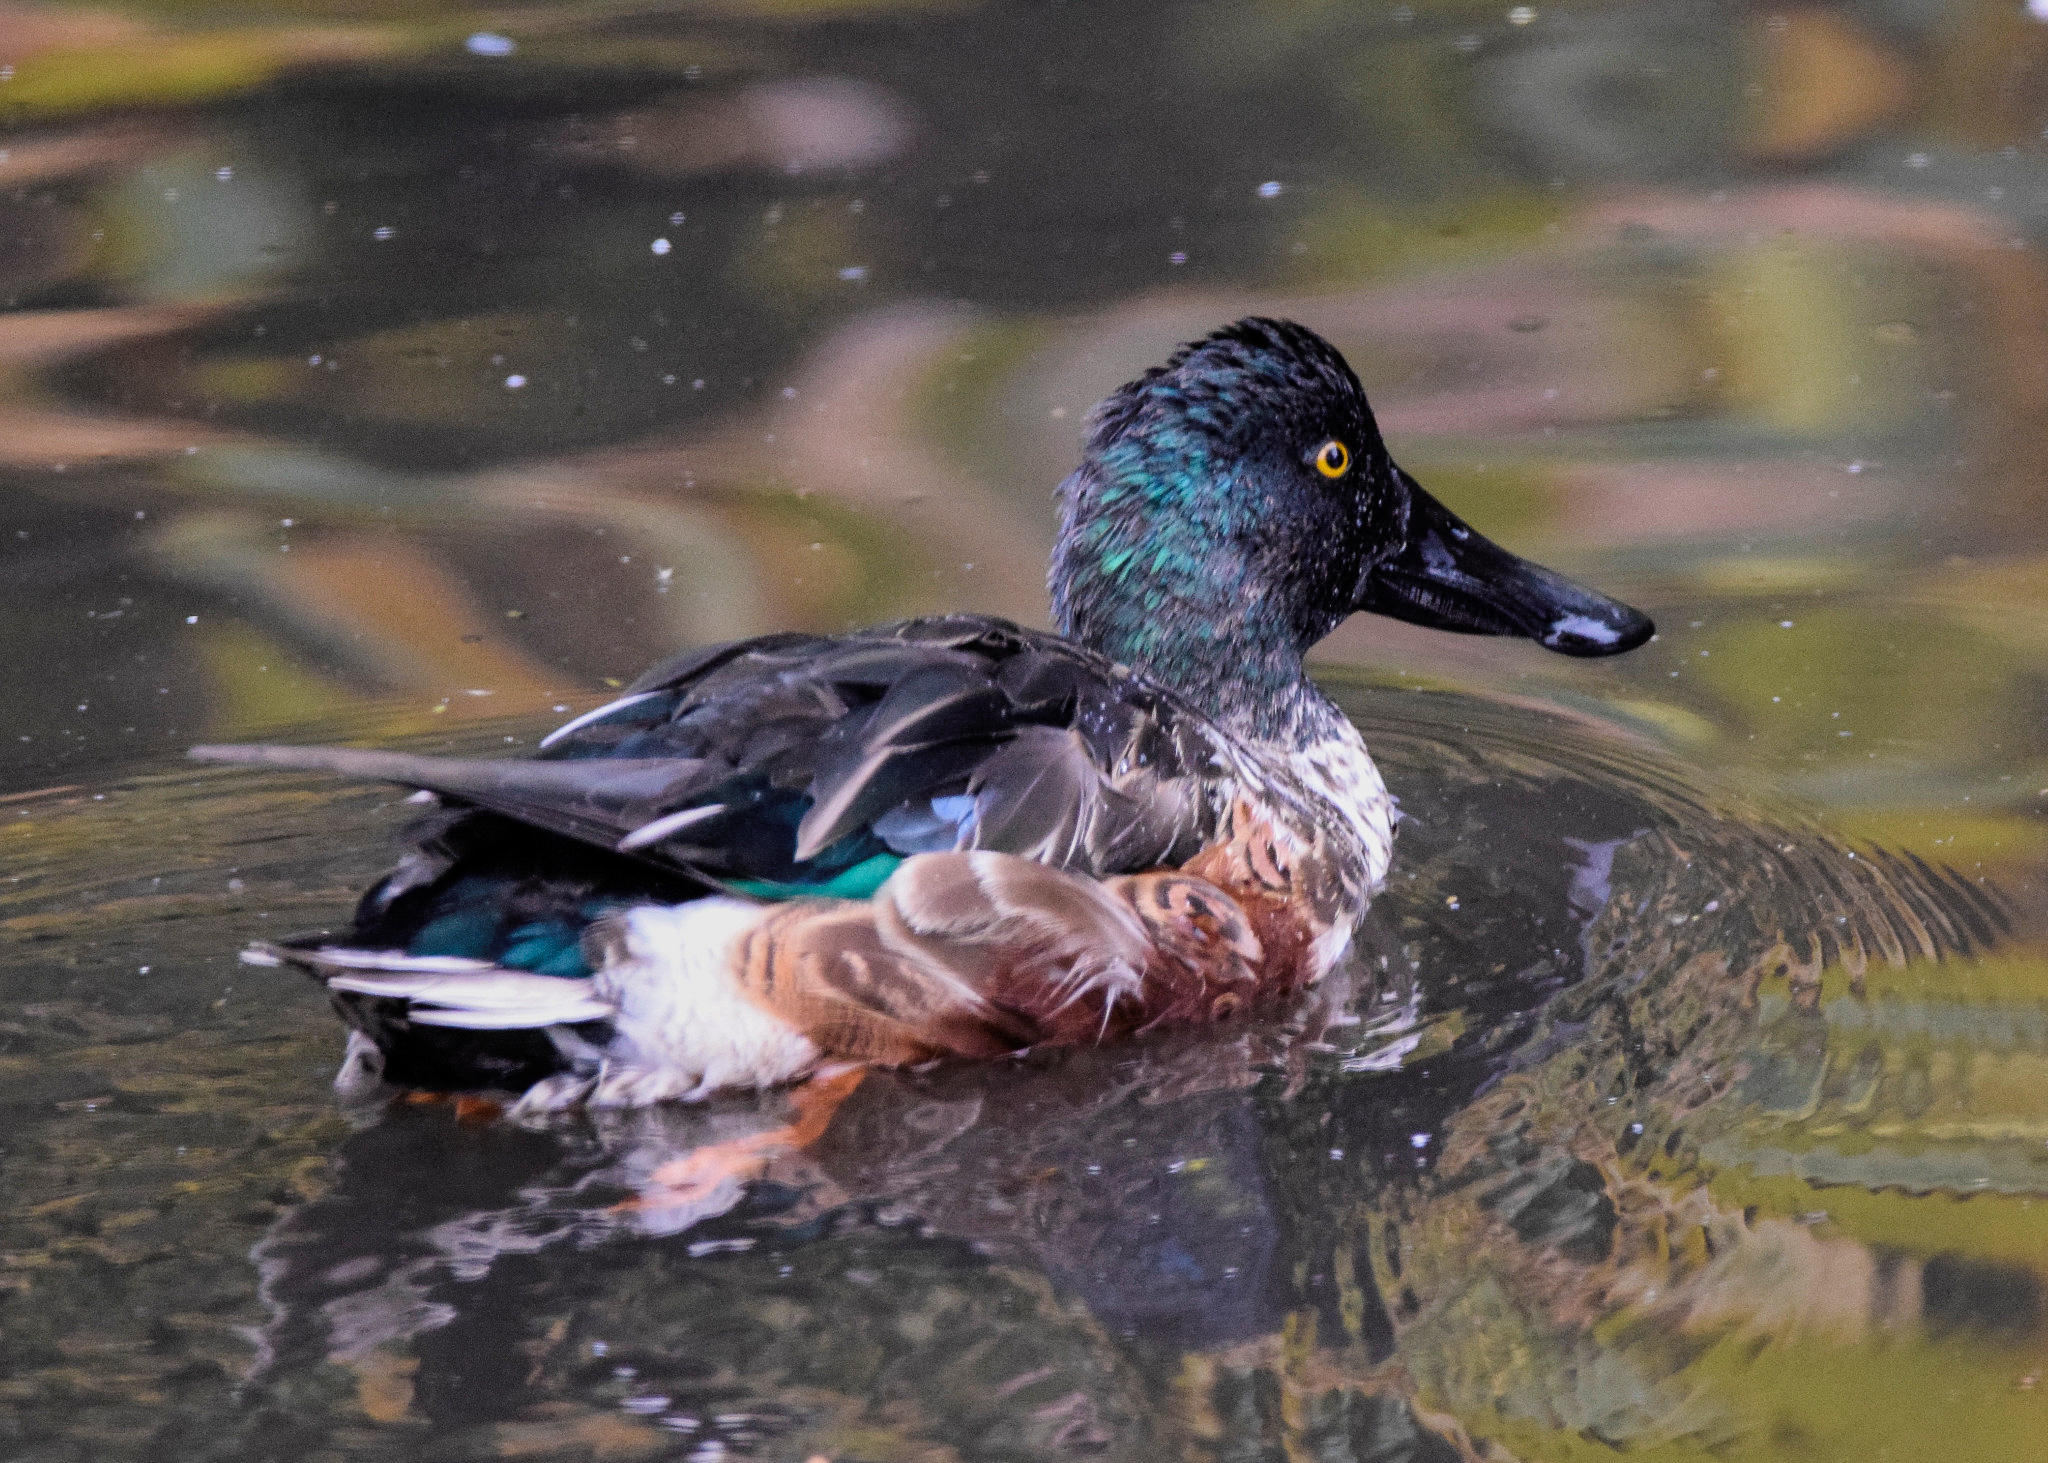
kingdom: Animalia
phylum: Chordata
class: Aves
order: Anseriformes
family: Anatidae
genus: Spatula
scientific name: Spatula clypeata
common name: Northern shoveler
